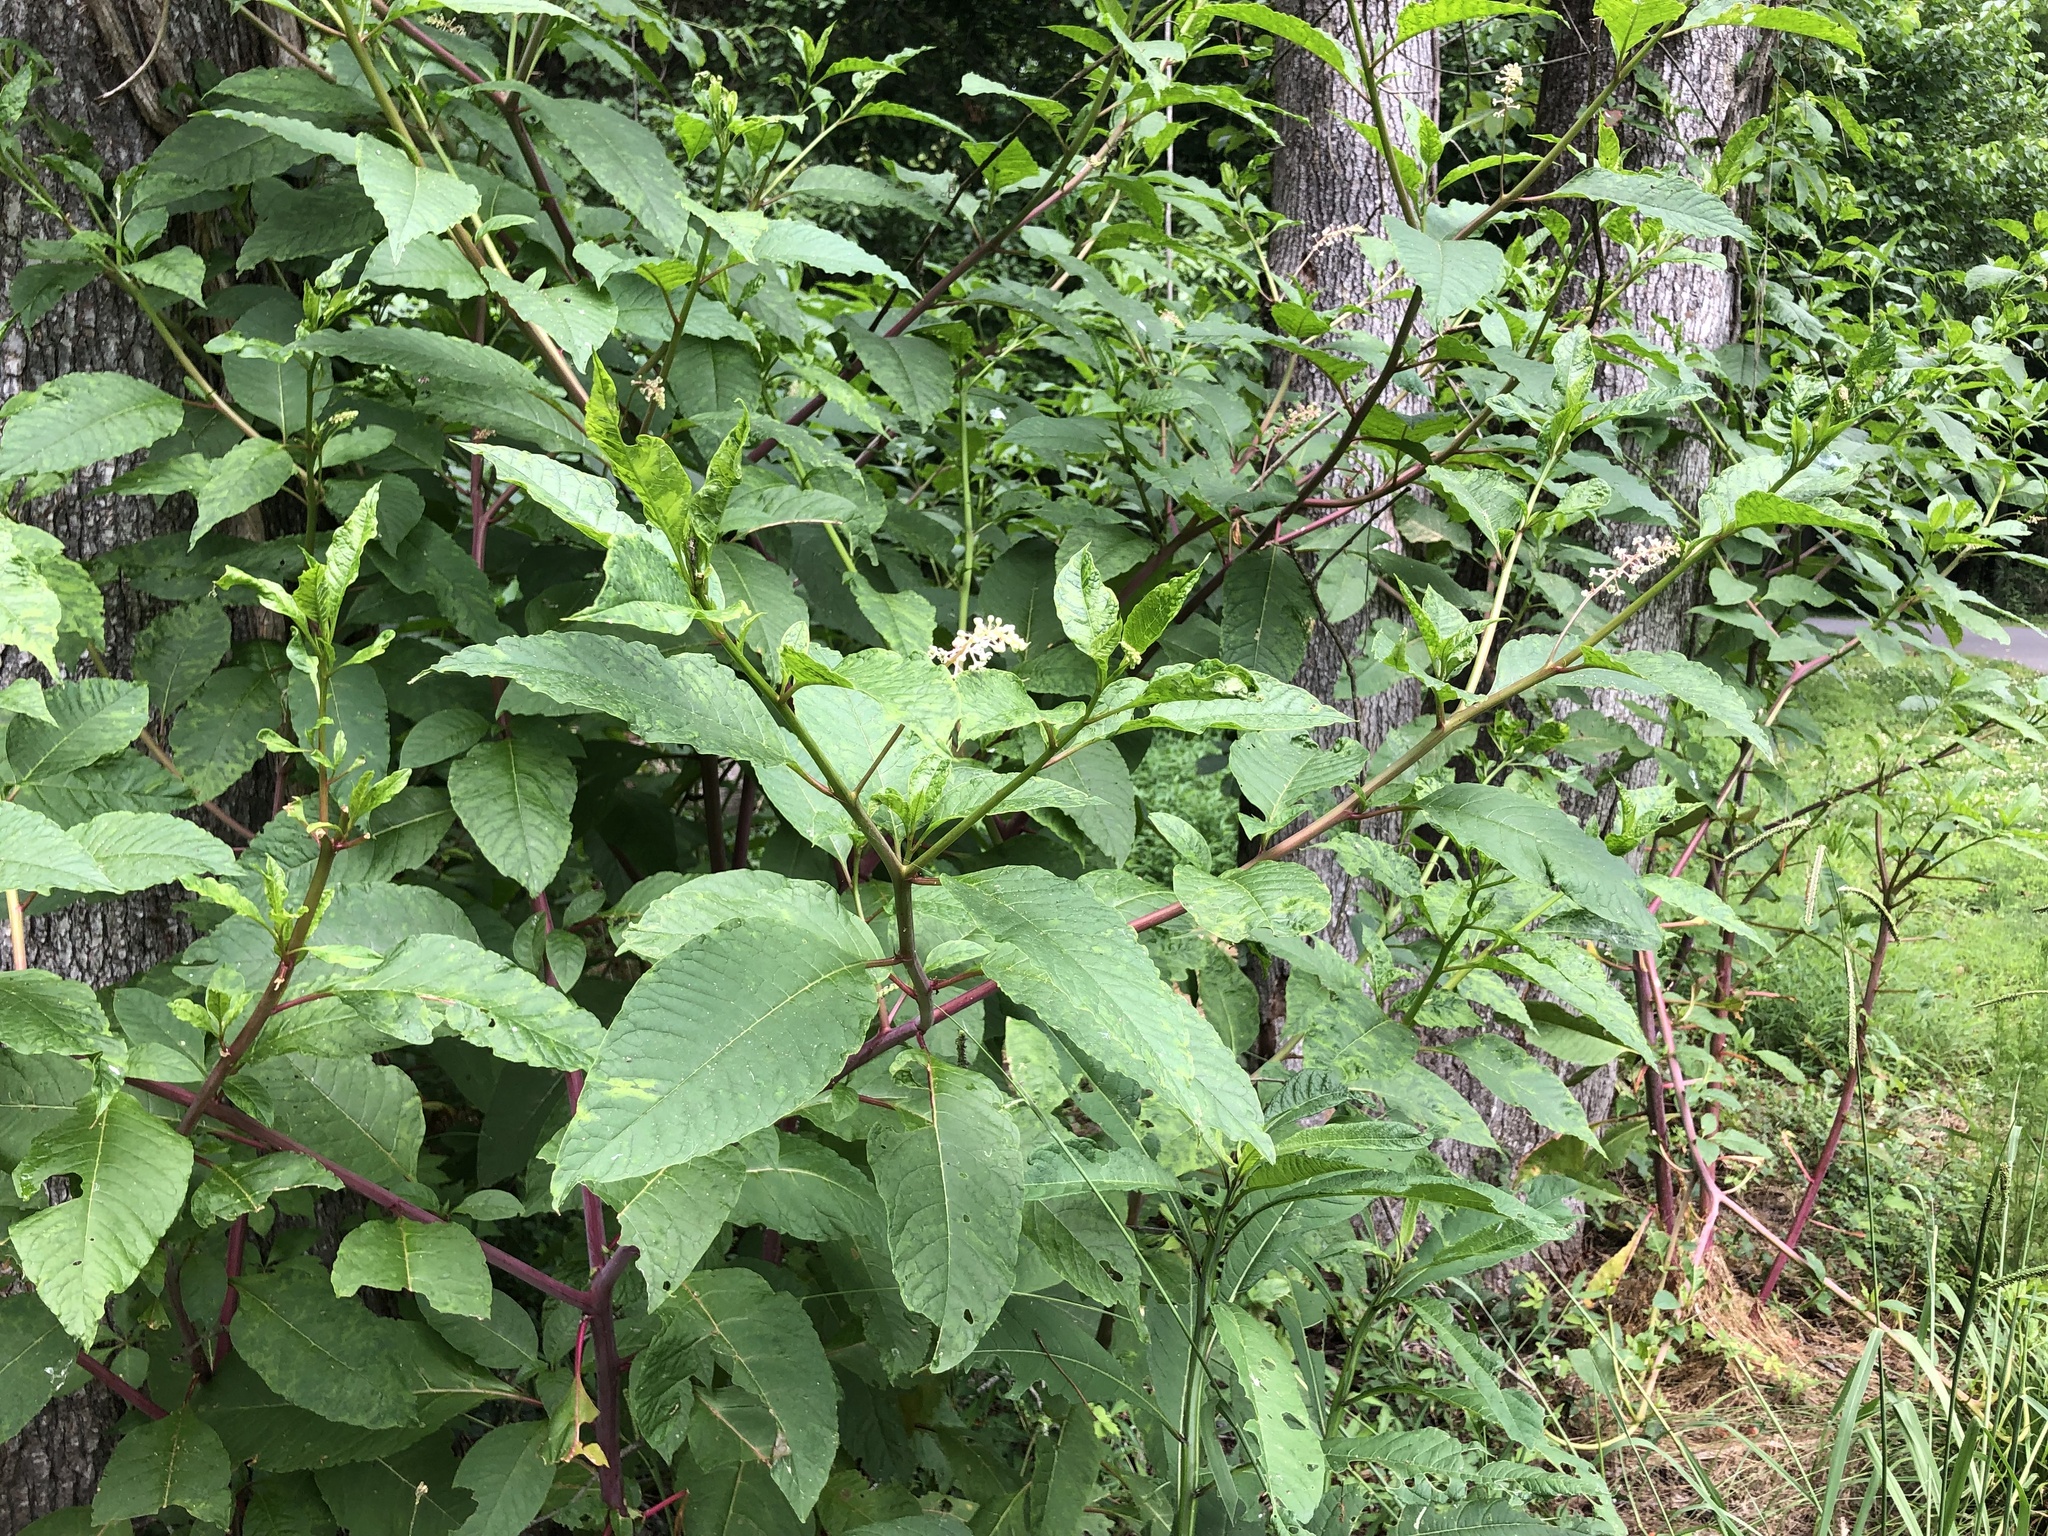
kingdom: Plantae
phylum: Tracheophyta
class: Magnoliopsida
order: Caryophyllales
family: Phytolaccaceae
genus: Phytolacca
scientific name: Phytolacca americana
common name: American pokeweed
